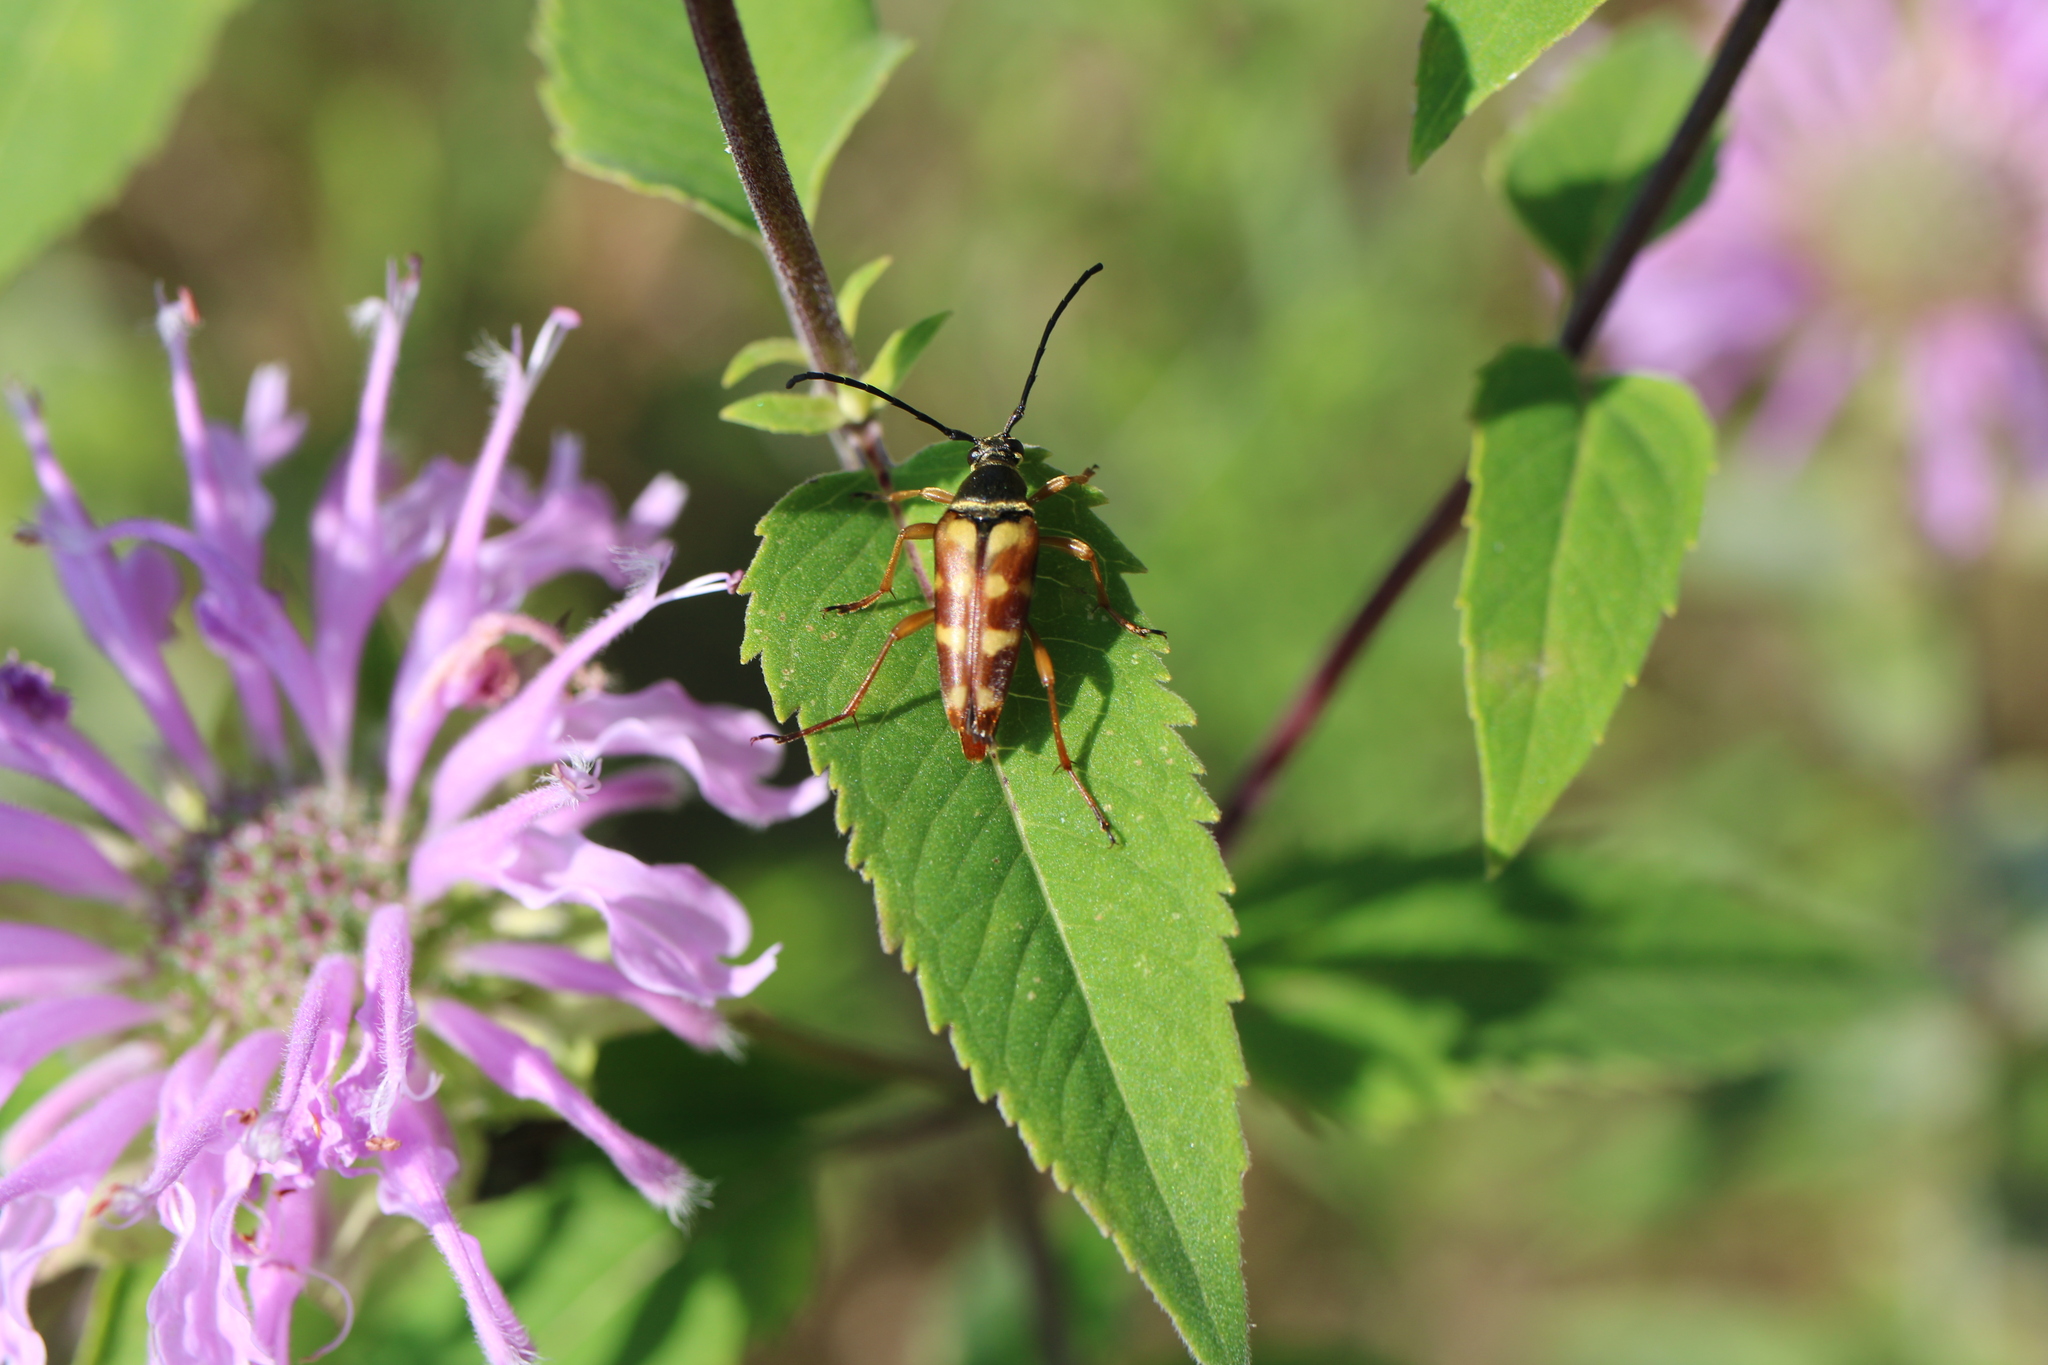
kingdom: Animalia
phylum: Arthropoda
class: Insecta
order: Coleoptera
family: Cerambycidae
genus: Typocerus
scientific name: Typocerus velutinus
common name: Banded longhorn beetle
